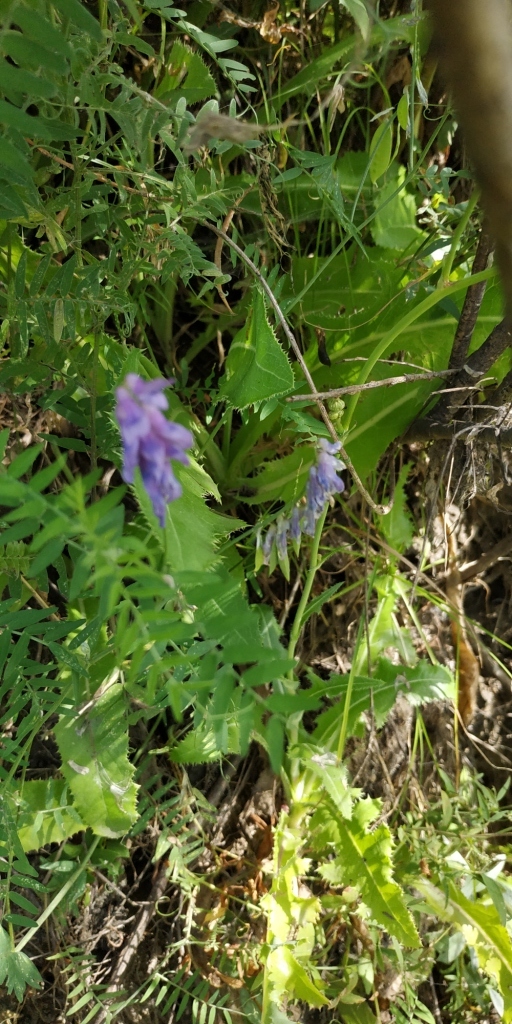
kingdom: Plantae
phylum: Tracheophyta
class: Magnoliopsida
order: Fabales
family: Fabaceae
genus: Vicia
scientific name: Vicia cracca
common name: Bird vetch
